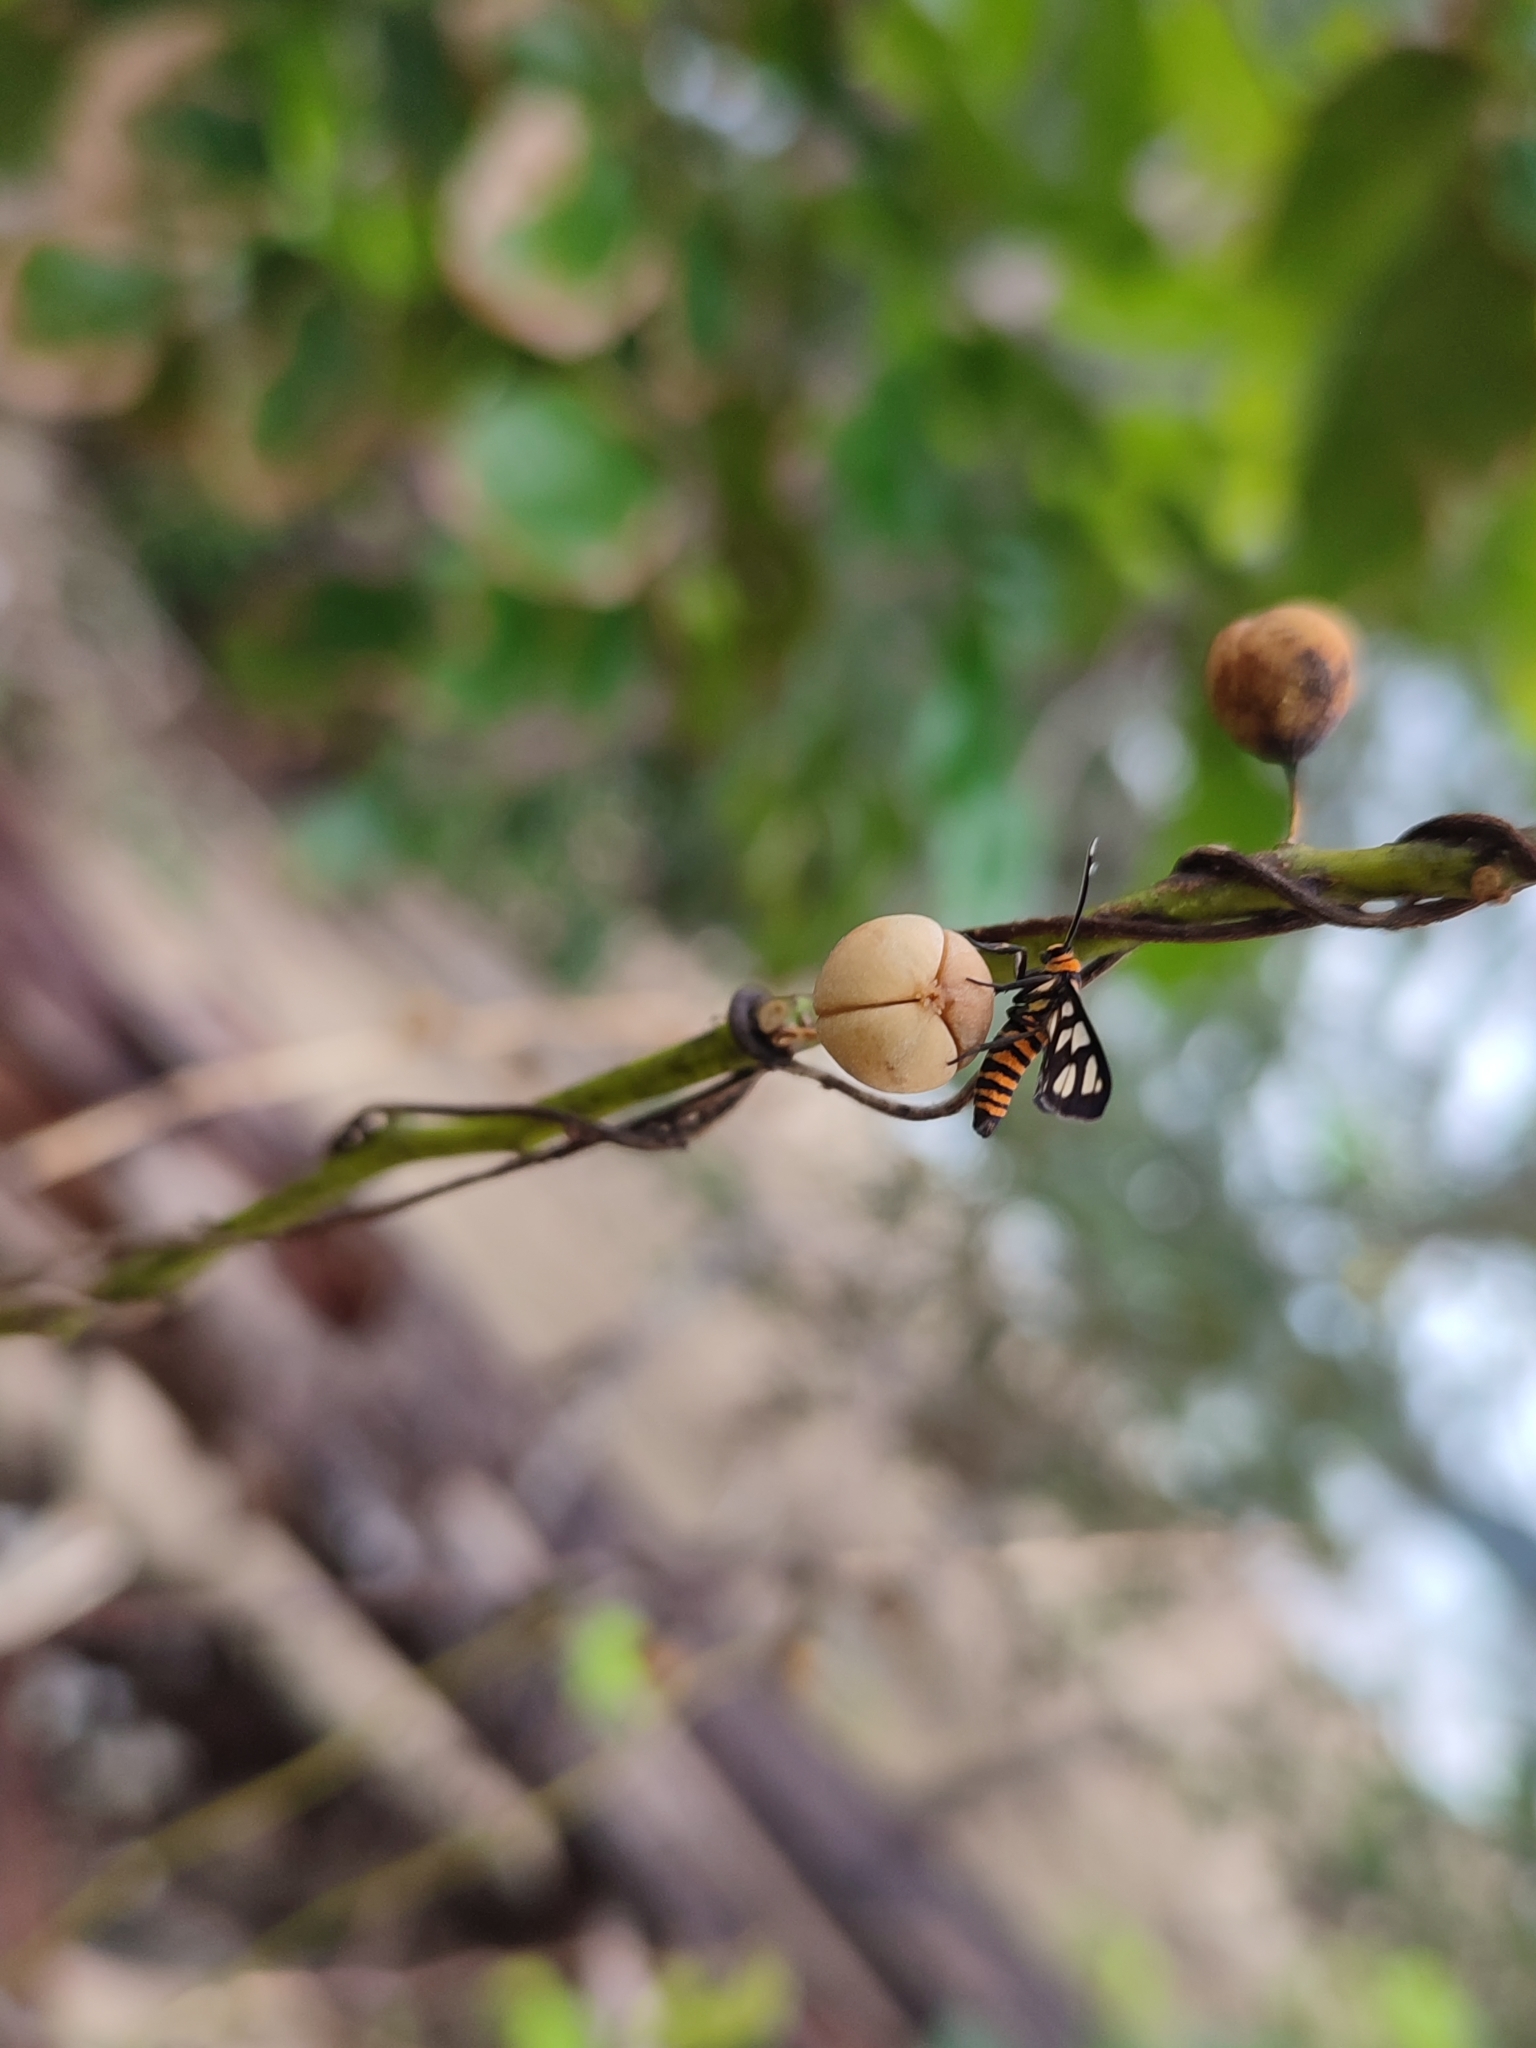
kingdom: Animalia
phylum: Arthropoda
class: Insecta
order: Lepidoptera
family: Erebidae
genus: Amata
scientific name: Amata huebneri
